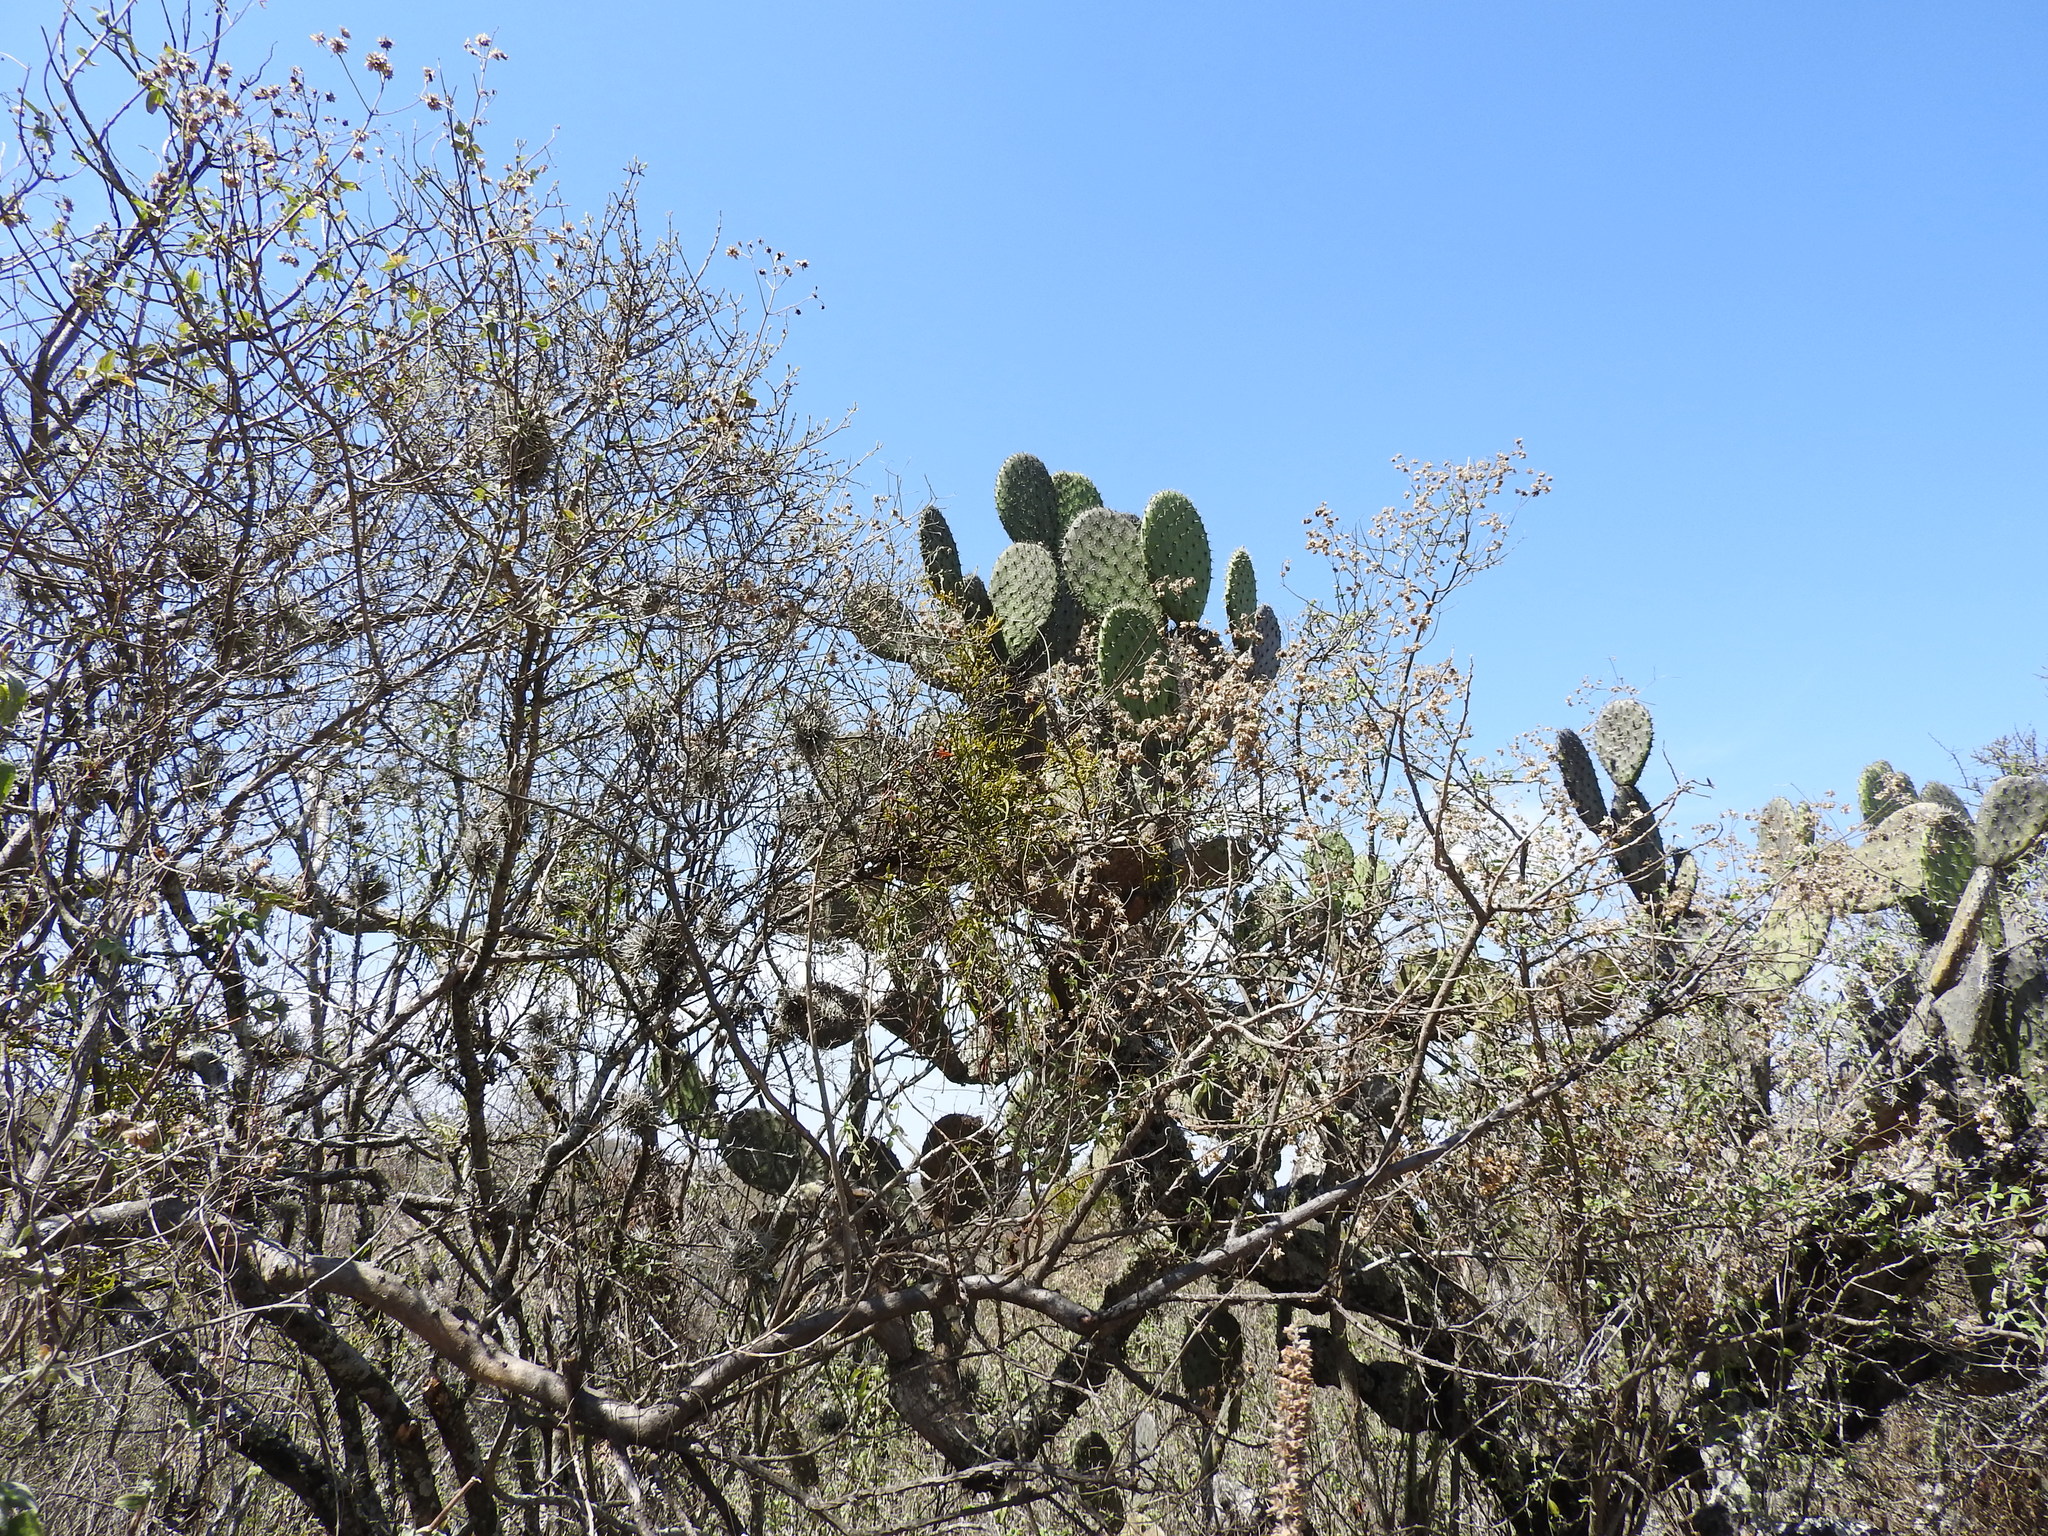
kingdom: Plantae
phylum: Tracheophyta
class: Magnoliopsida
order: Caryophyllales
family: Cactaceae
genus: Opuntia
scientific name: Opuntia streptacantha
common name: Gracemere-pear
